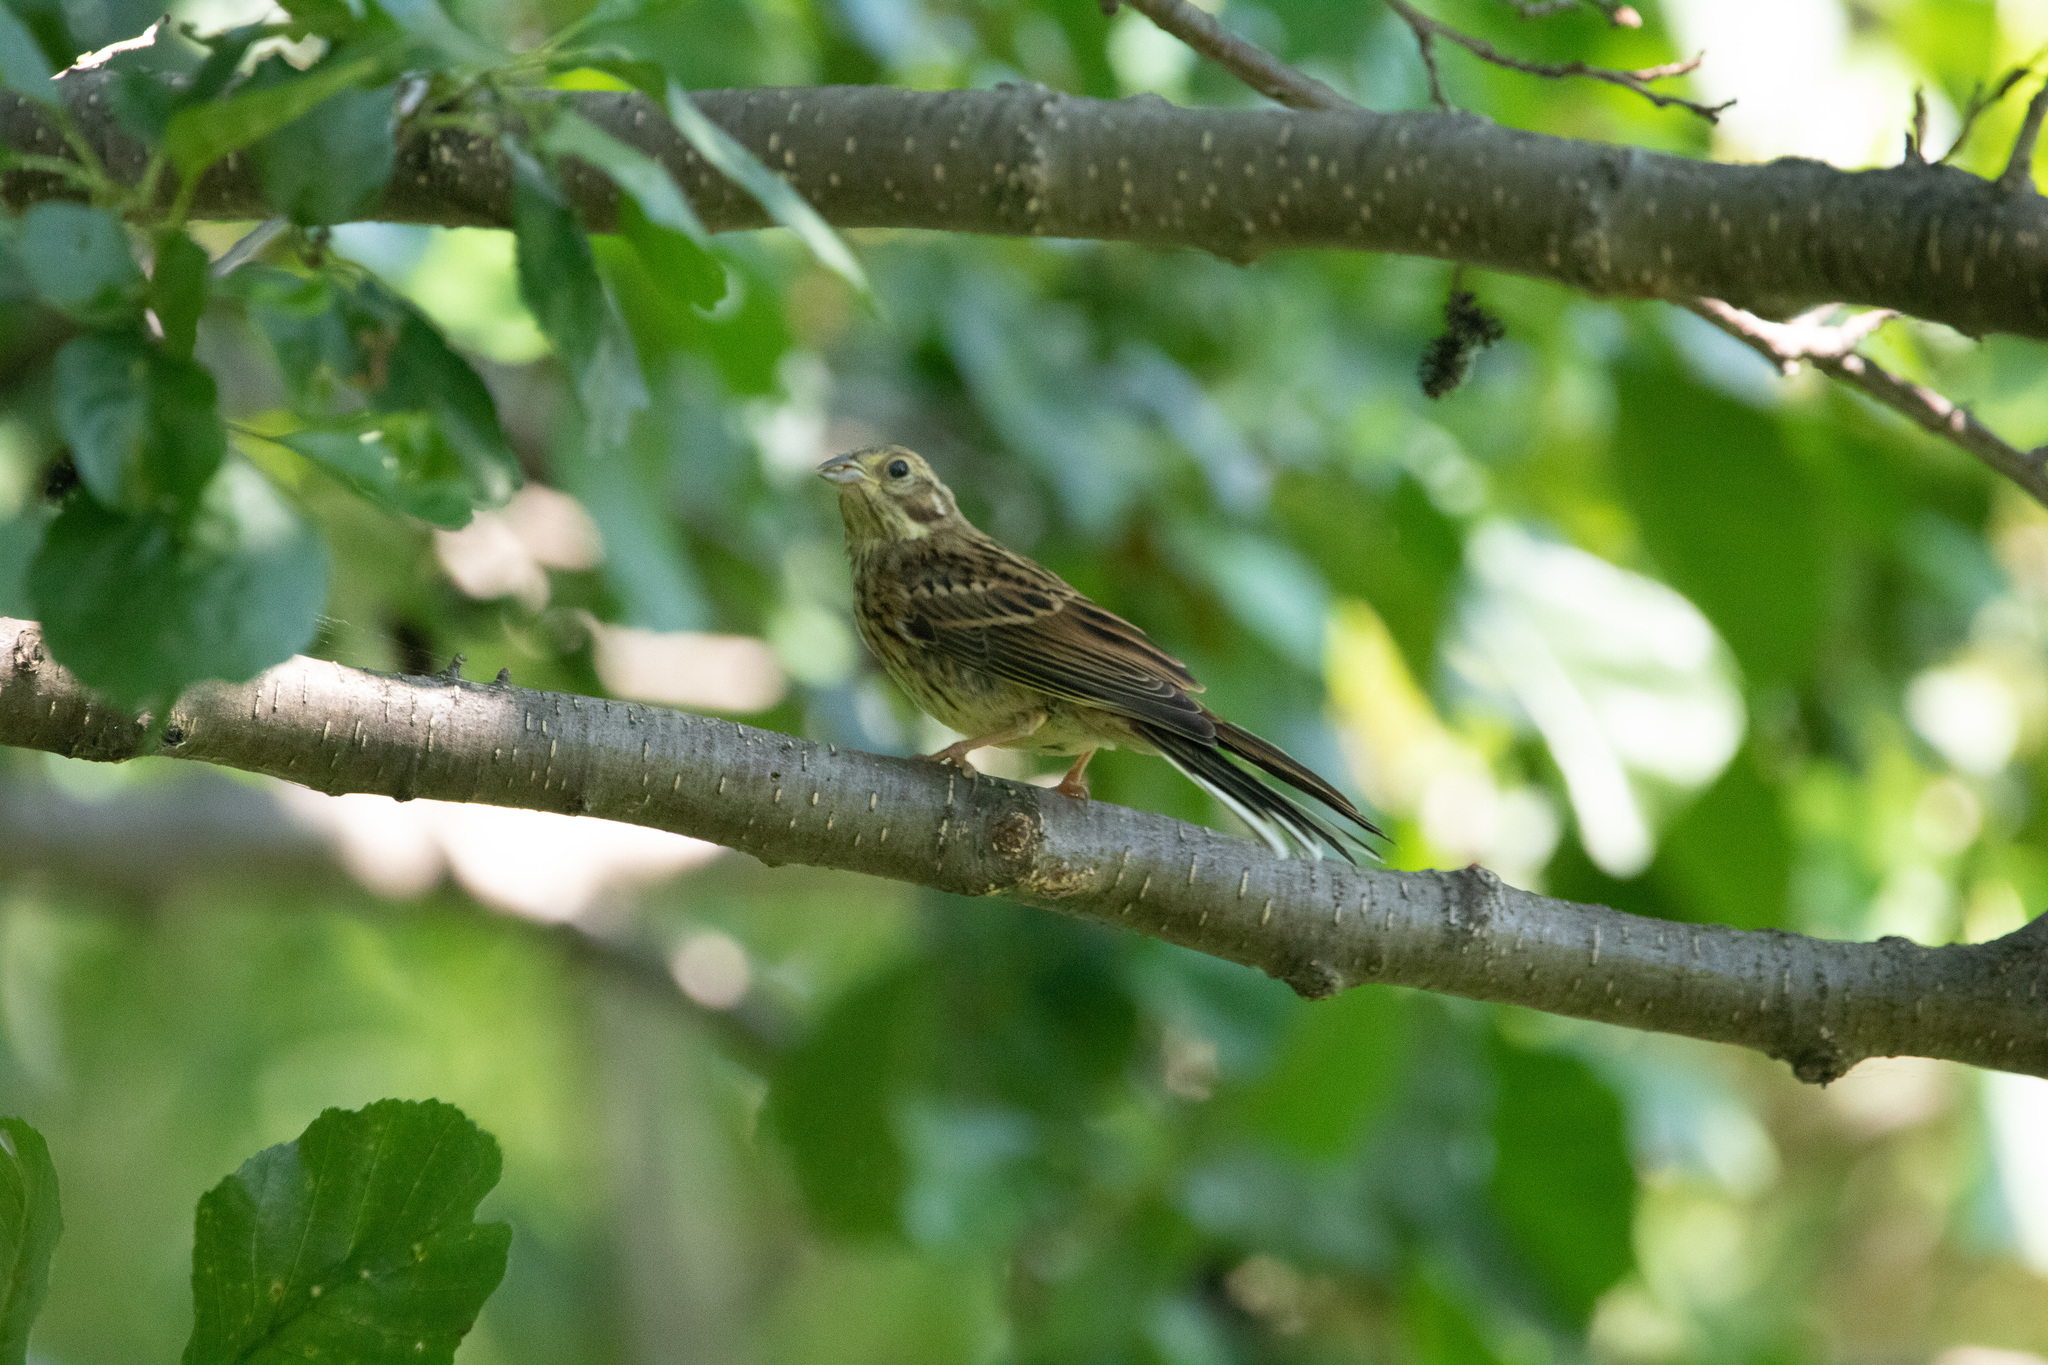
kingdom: Animalia
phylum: Chordata
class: Aves
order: Passeriformes
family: Emberizidae
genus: Emberiza
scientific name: Emberiza citrinella
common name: Yellowhammer
